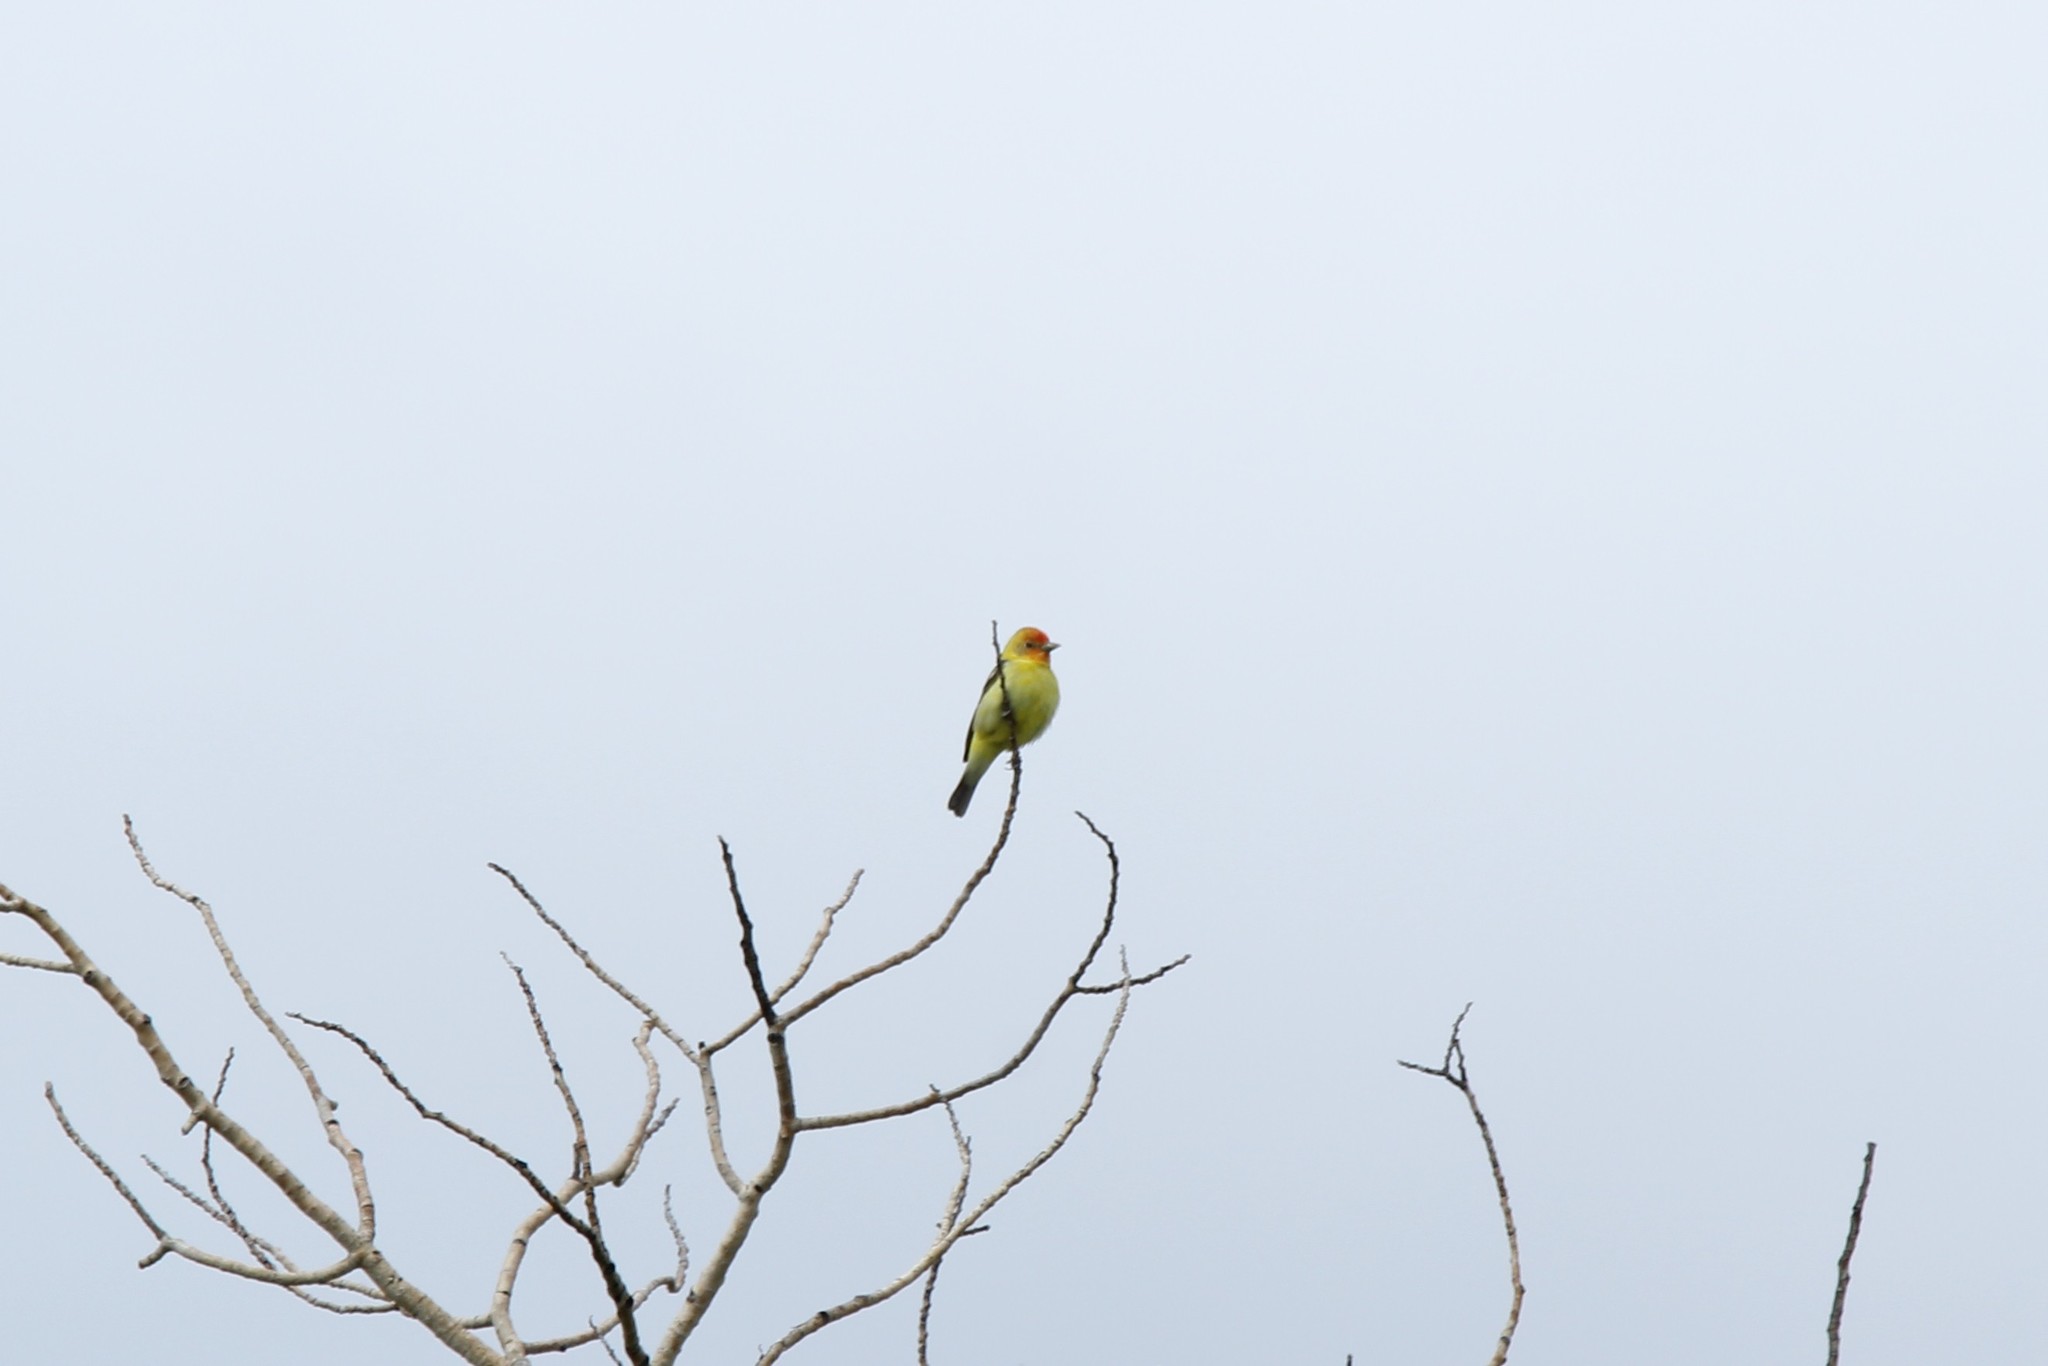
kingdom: Animalia
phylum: Chordata
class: Aves
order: Passeriformes
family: Cardinalidae
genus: Piranga
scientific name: Piranga ludoviciana
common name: Western tanager
